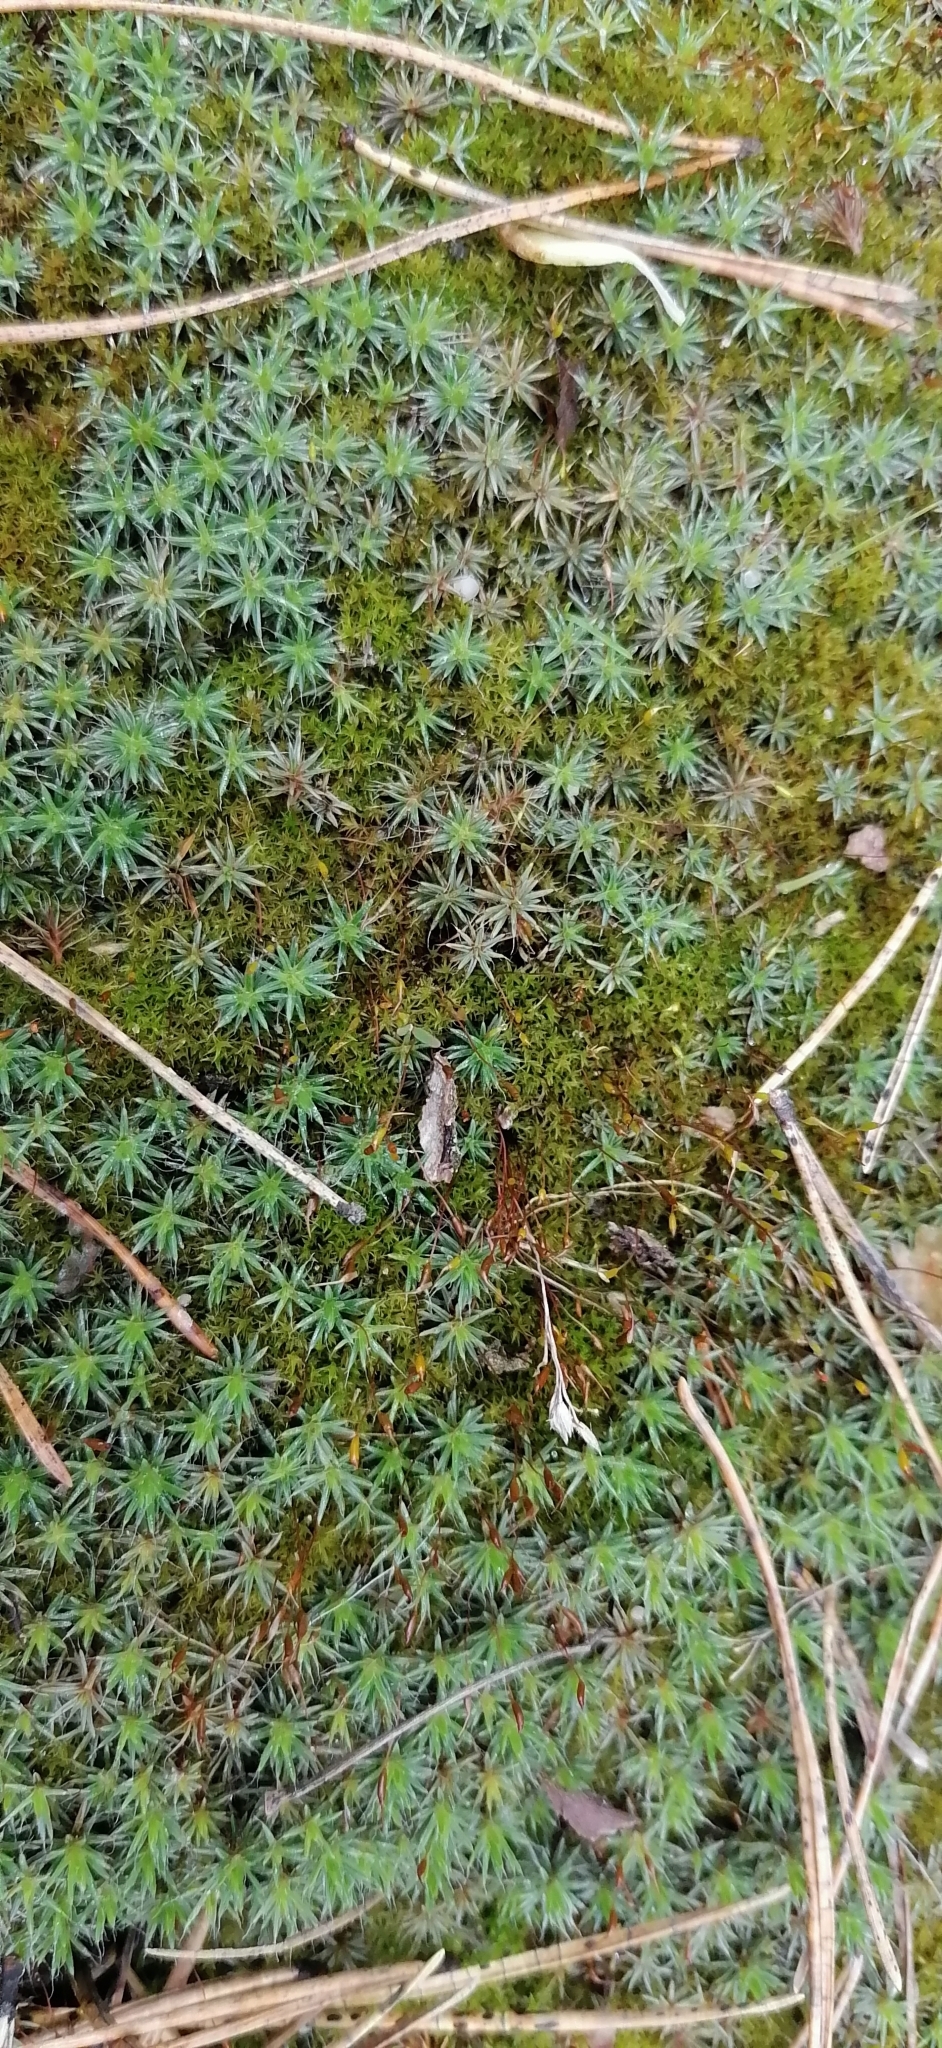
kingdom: Plantae
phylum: Bryophyta
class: Polytrichopsida
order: Polytrichales
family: Polytrichaceae
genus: Polytrichum
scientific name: Polytrichum piliferum
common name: Bristly haircap
